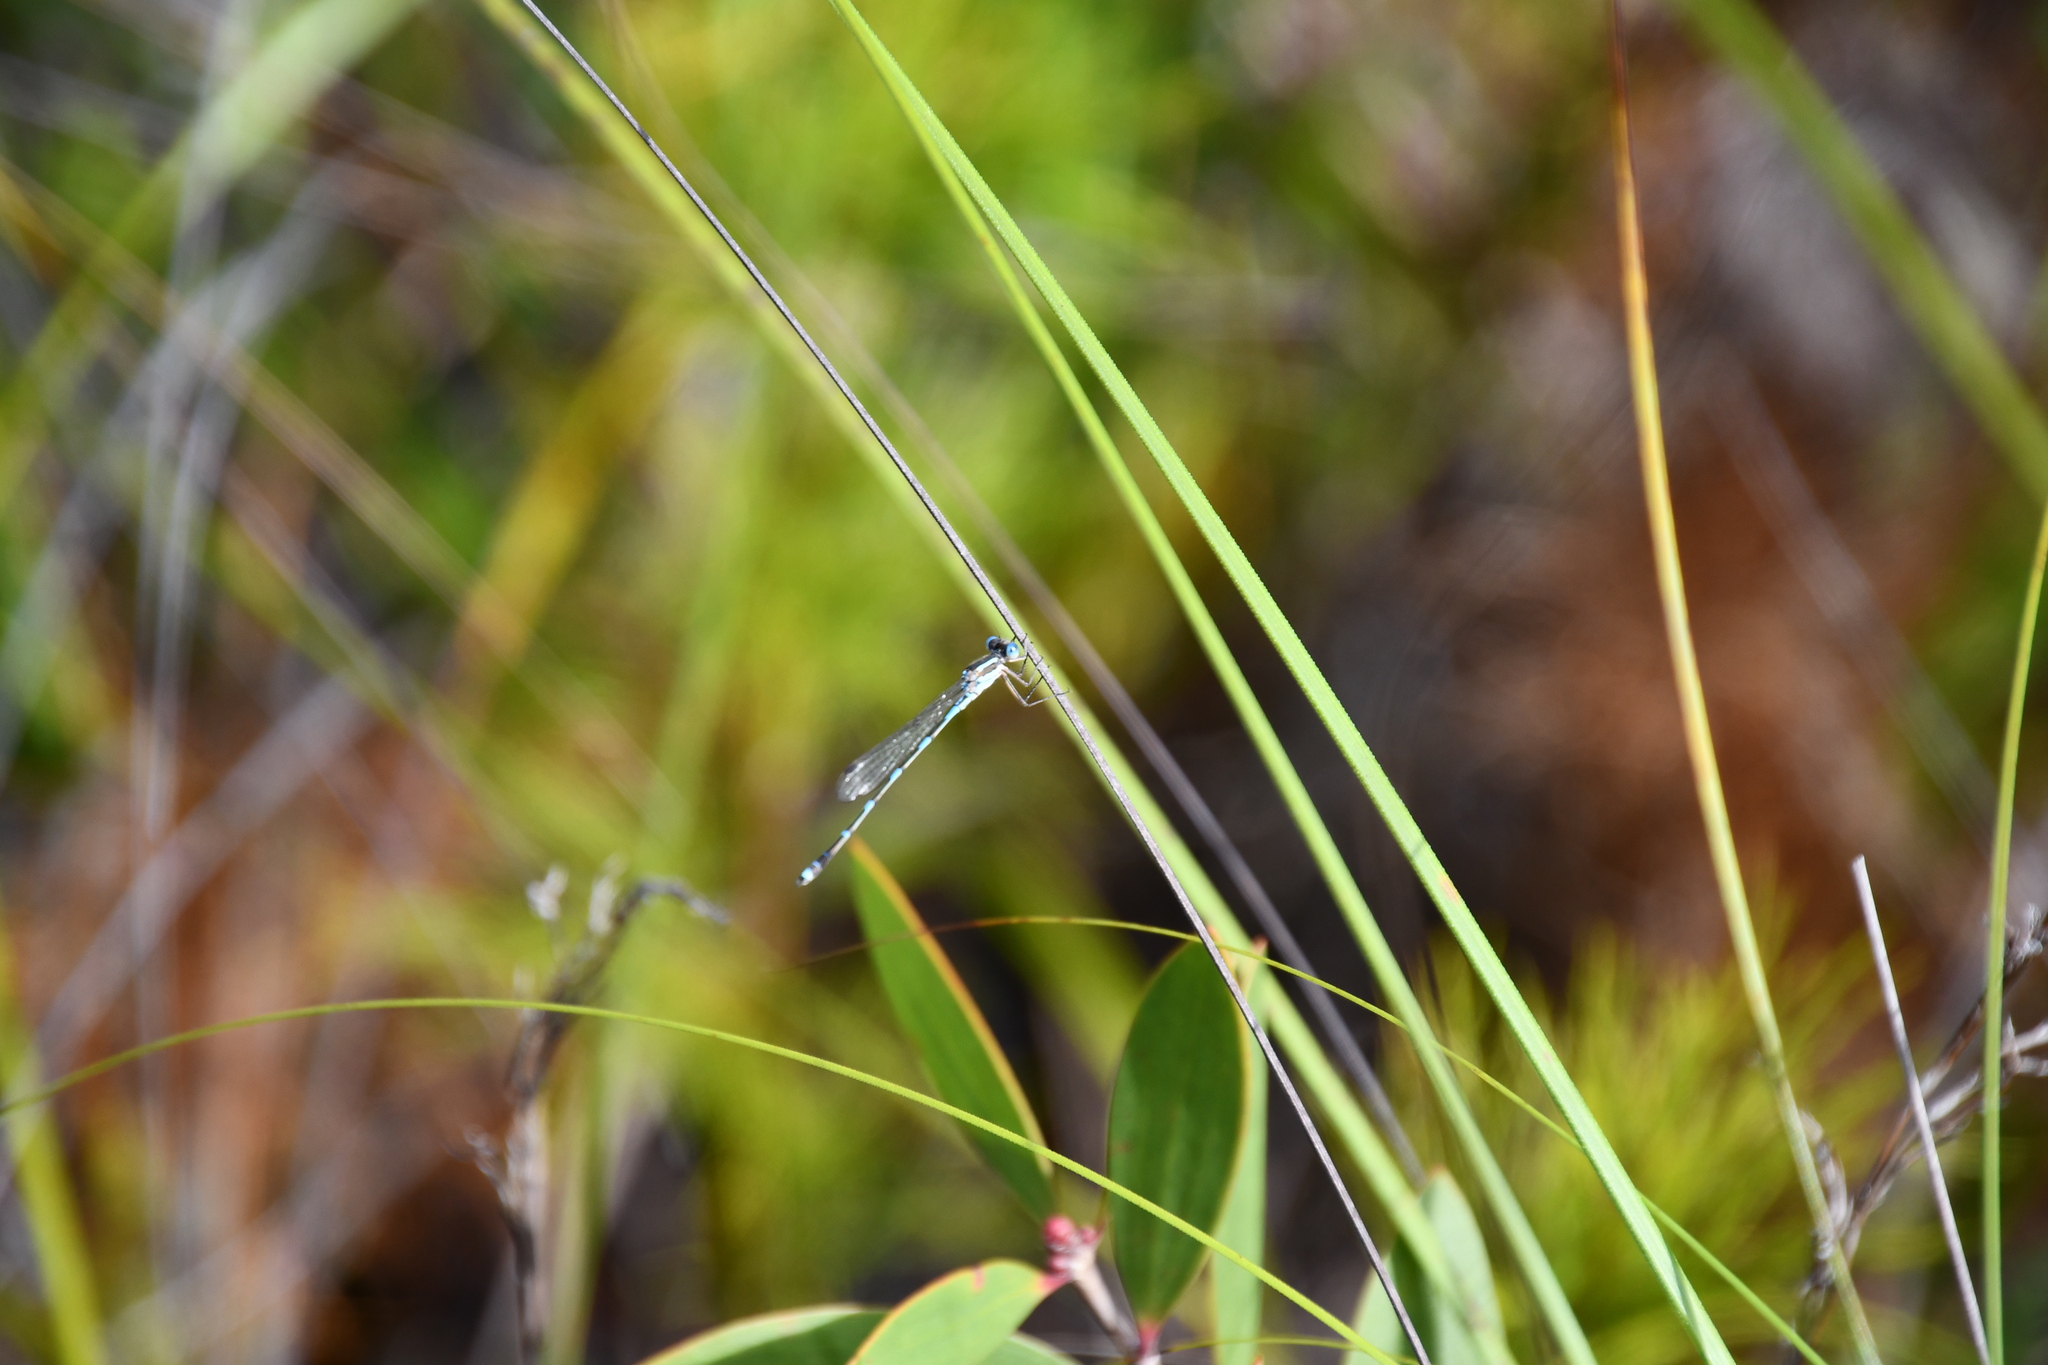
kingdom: Animalia
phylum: Arthropoda
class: Insecta
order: Odonata
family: Lestidae
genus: Austrolestes
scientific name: Austrolestes leda
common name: Wandering ringtail
